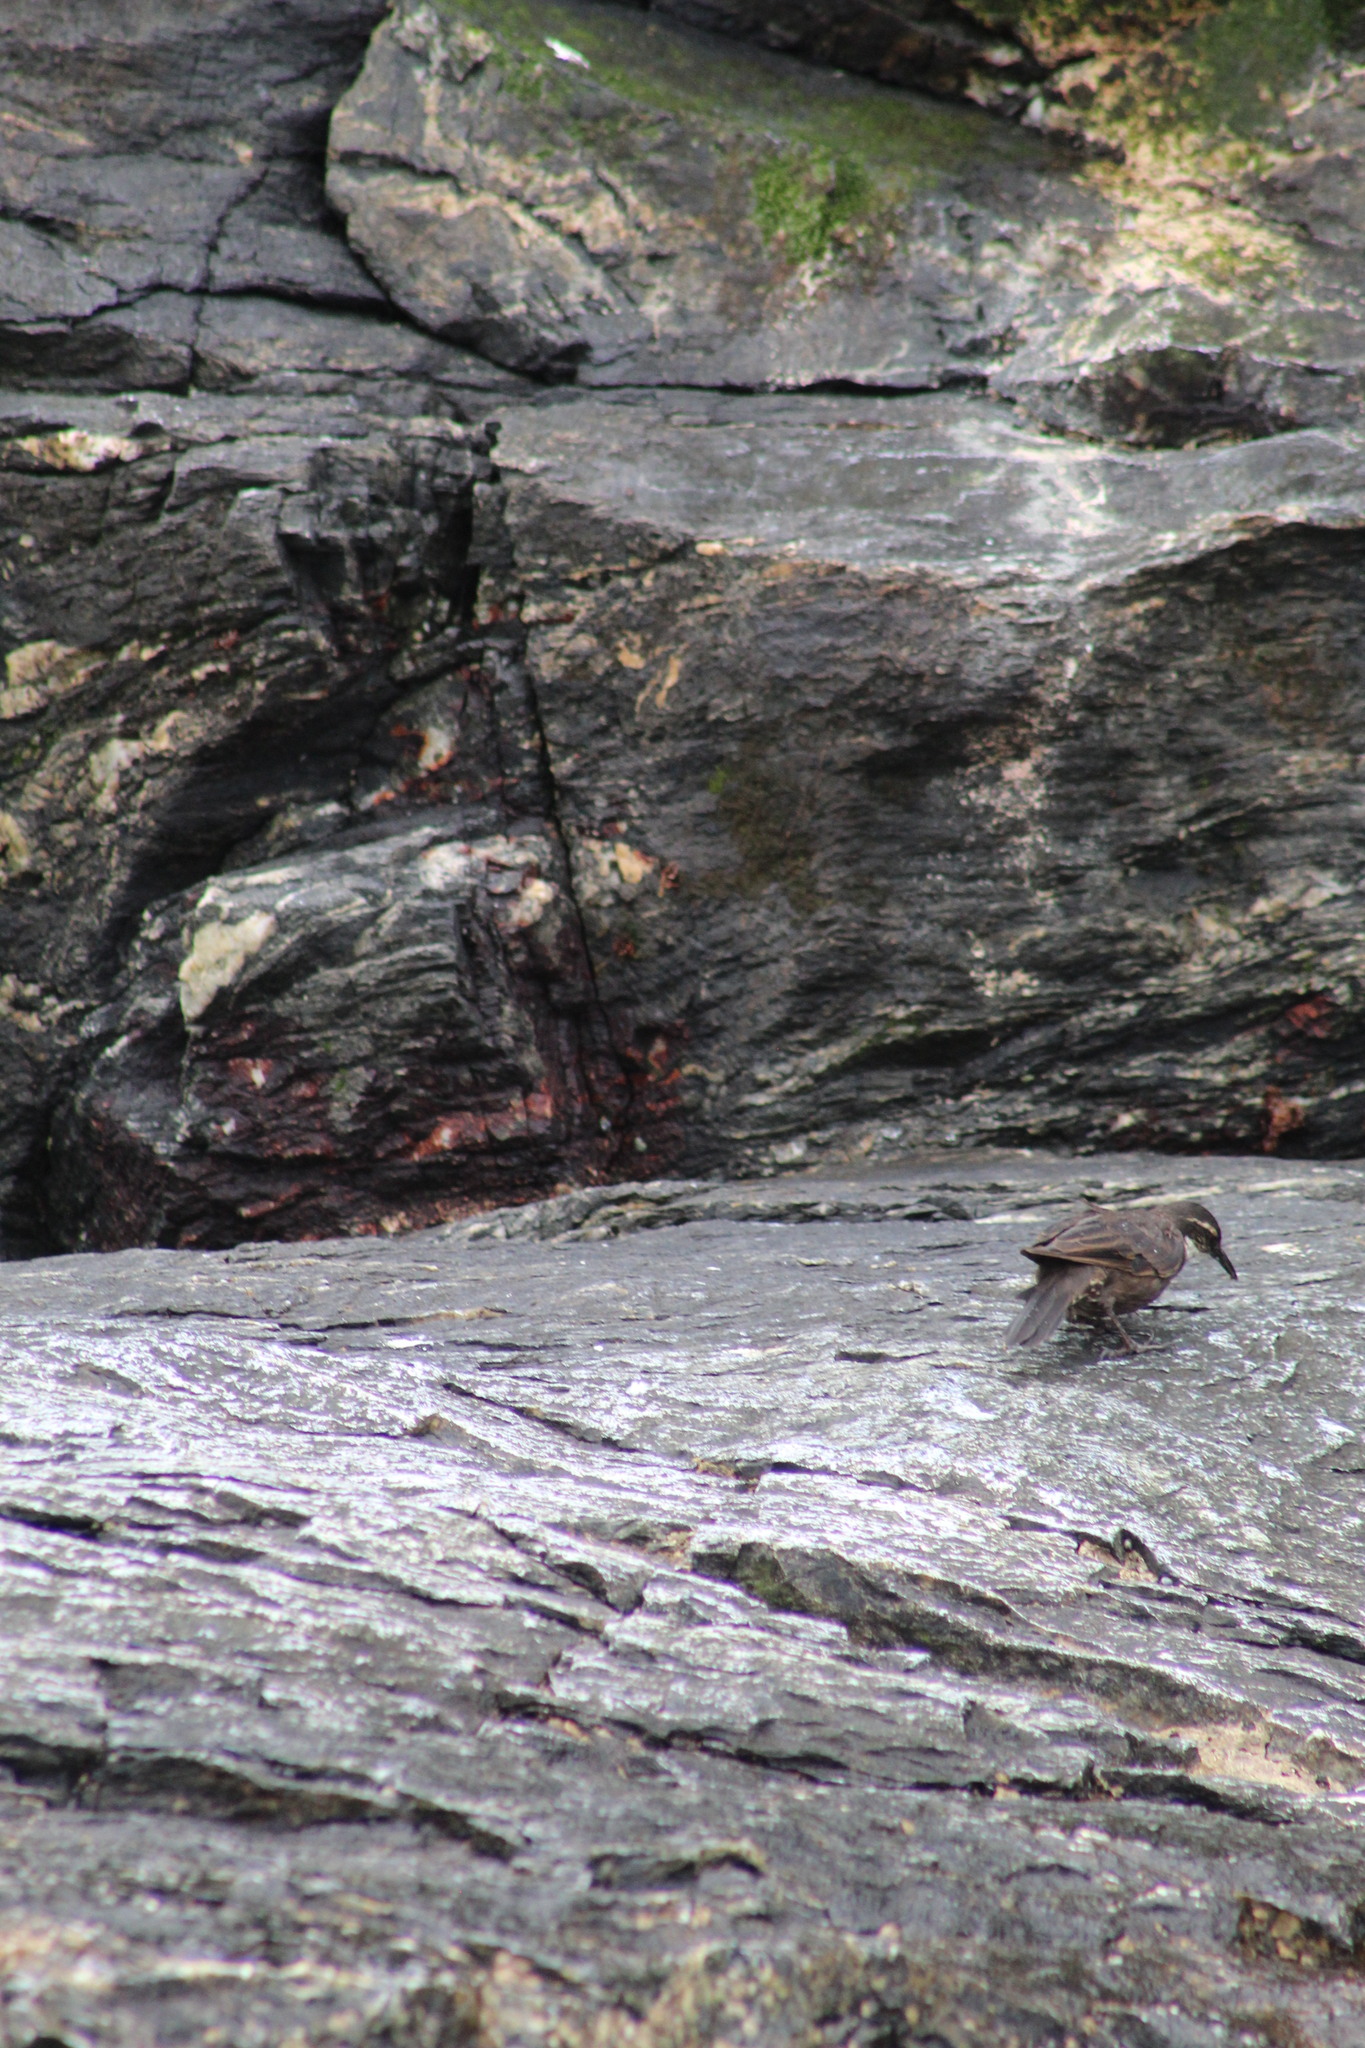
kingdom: Animalia
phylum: Chordata
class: Aves
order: Passeriformes
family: Furnariidae
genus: Cinclodes
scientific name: Cinclodes nigrofumosus
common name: Chilean seaside cinclodes
